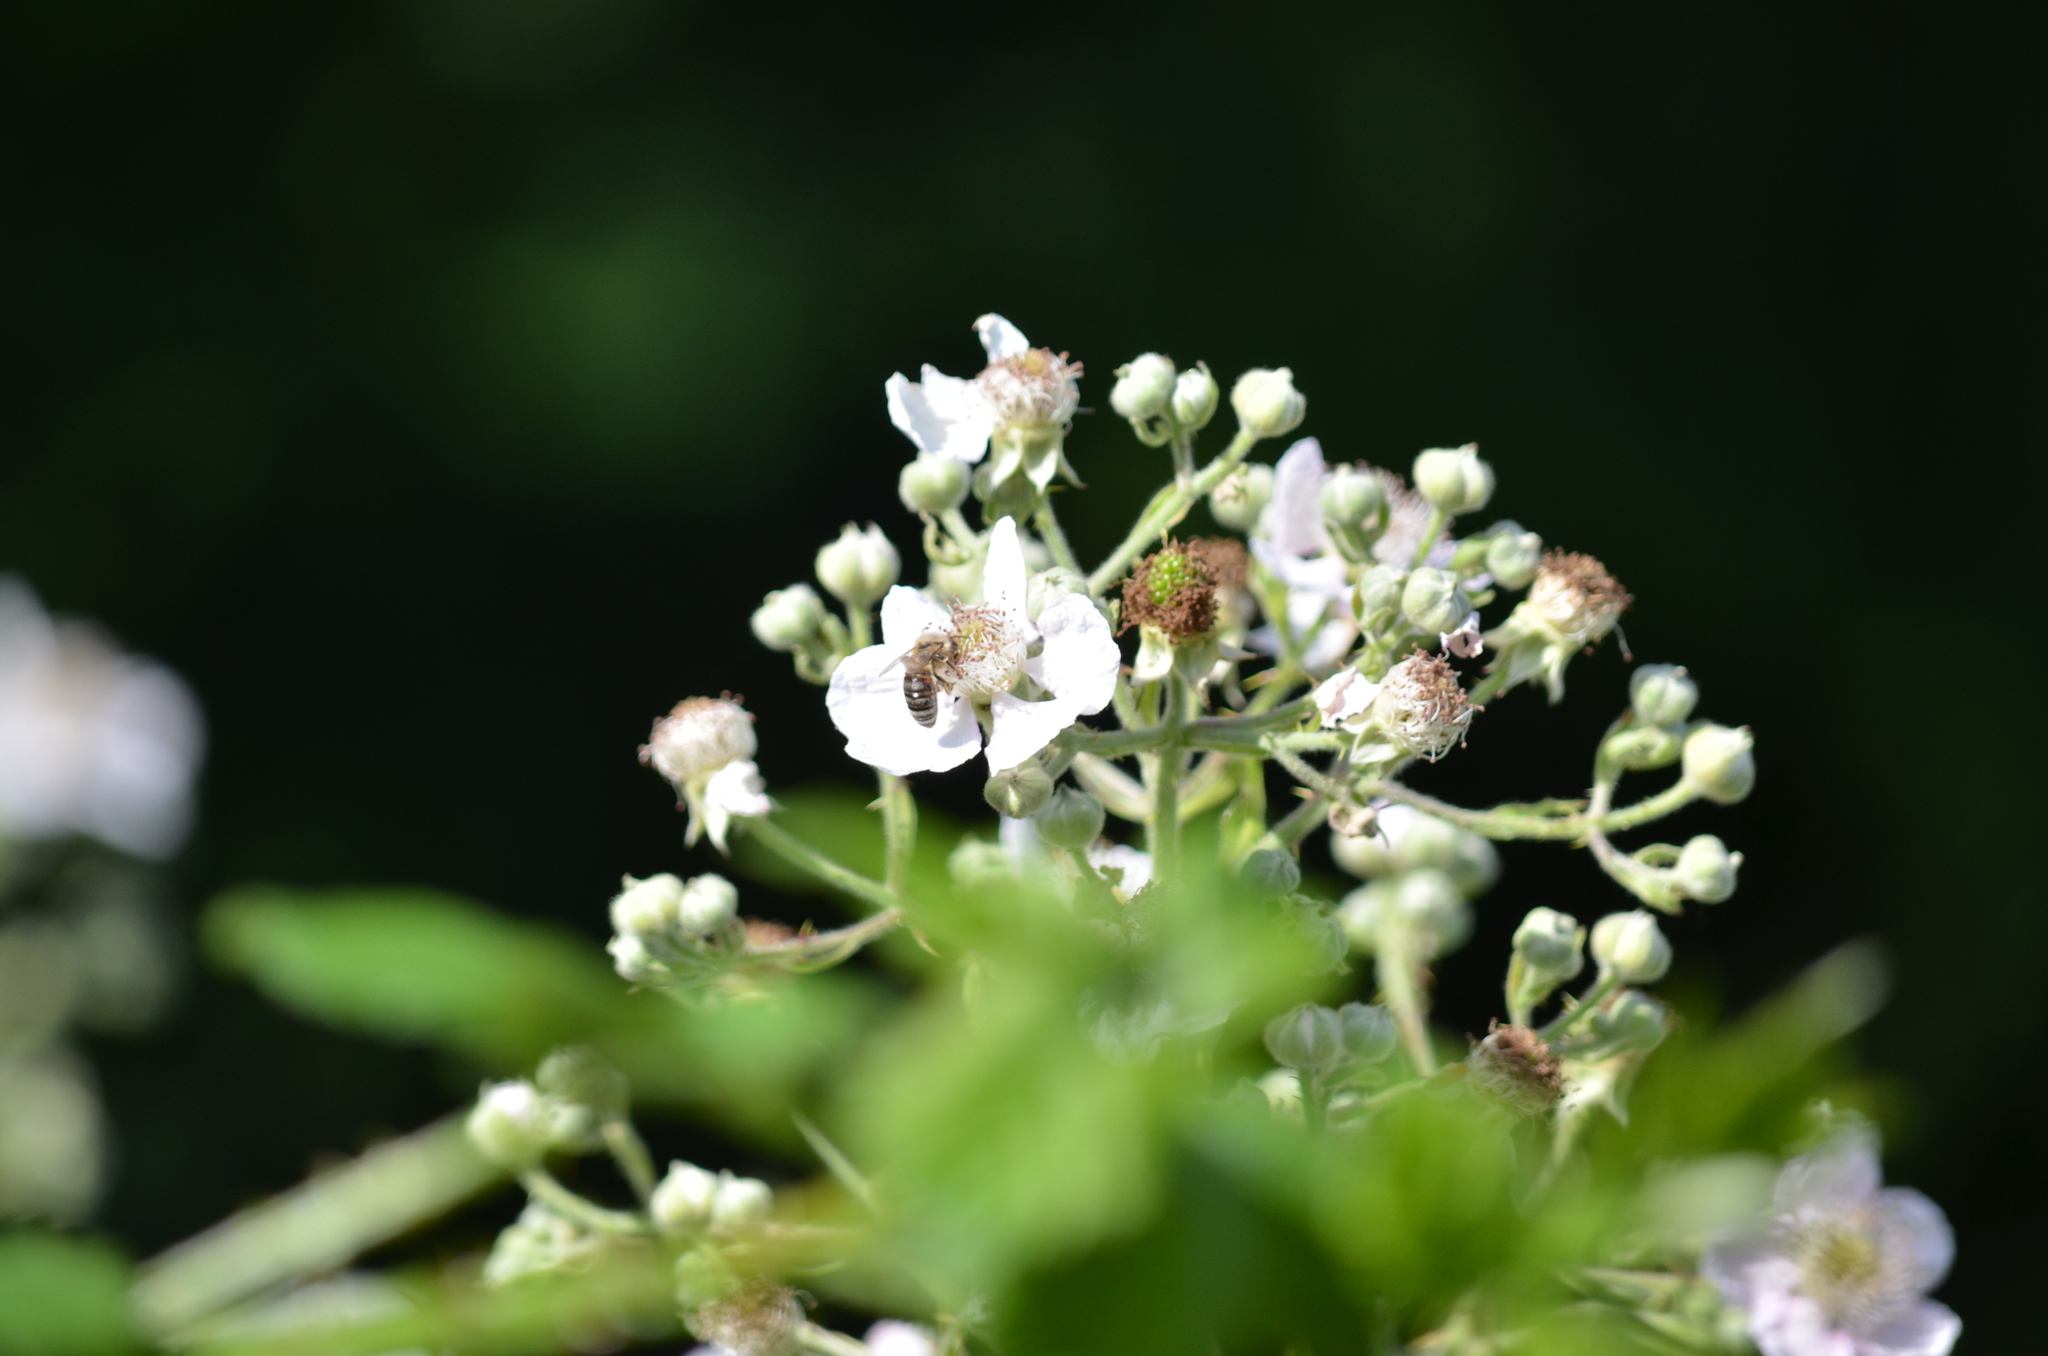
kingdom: Animalia
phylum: Arthropoda
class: Insecta
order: Hymenoptera
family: Apidae
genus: Apis
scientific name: Apis mellifera
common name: Honey bee
